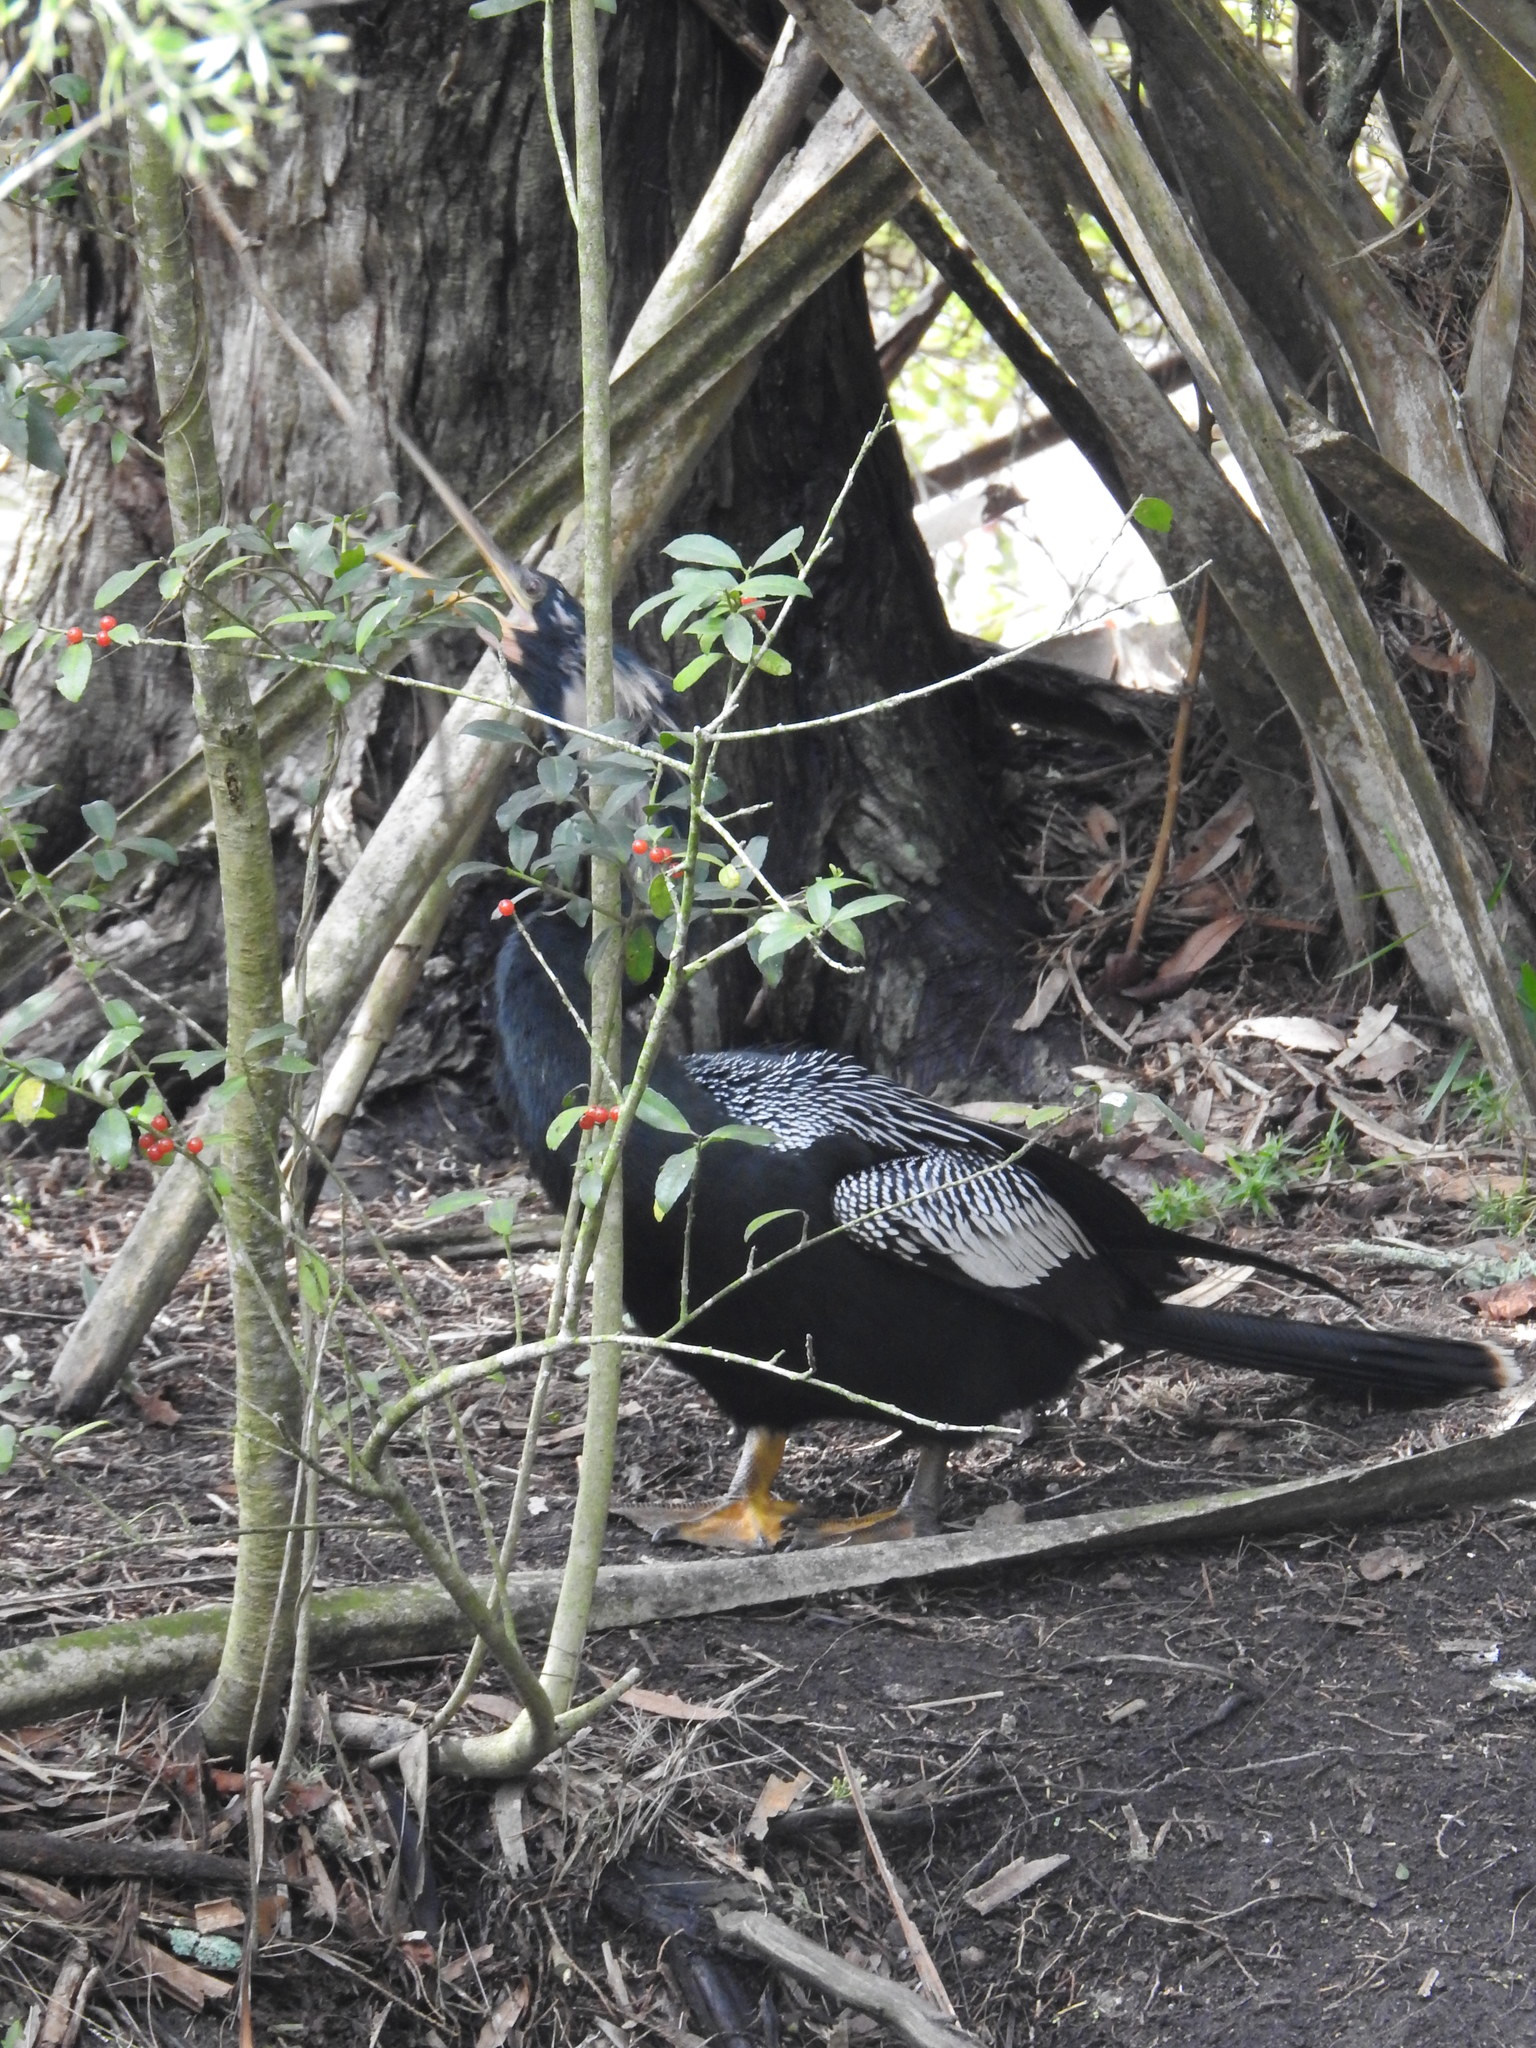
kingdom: Animalia
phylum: Chordata
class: Aves
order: Suliformes
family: Anhingidae
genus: Anhinga
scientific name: Anhinga anhinga
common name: Anhinga
